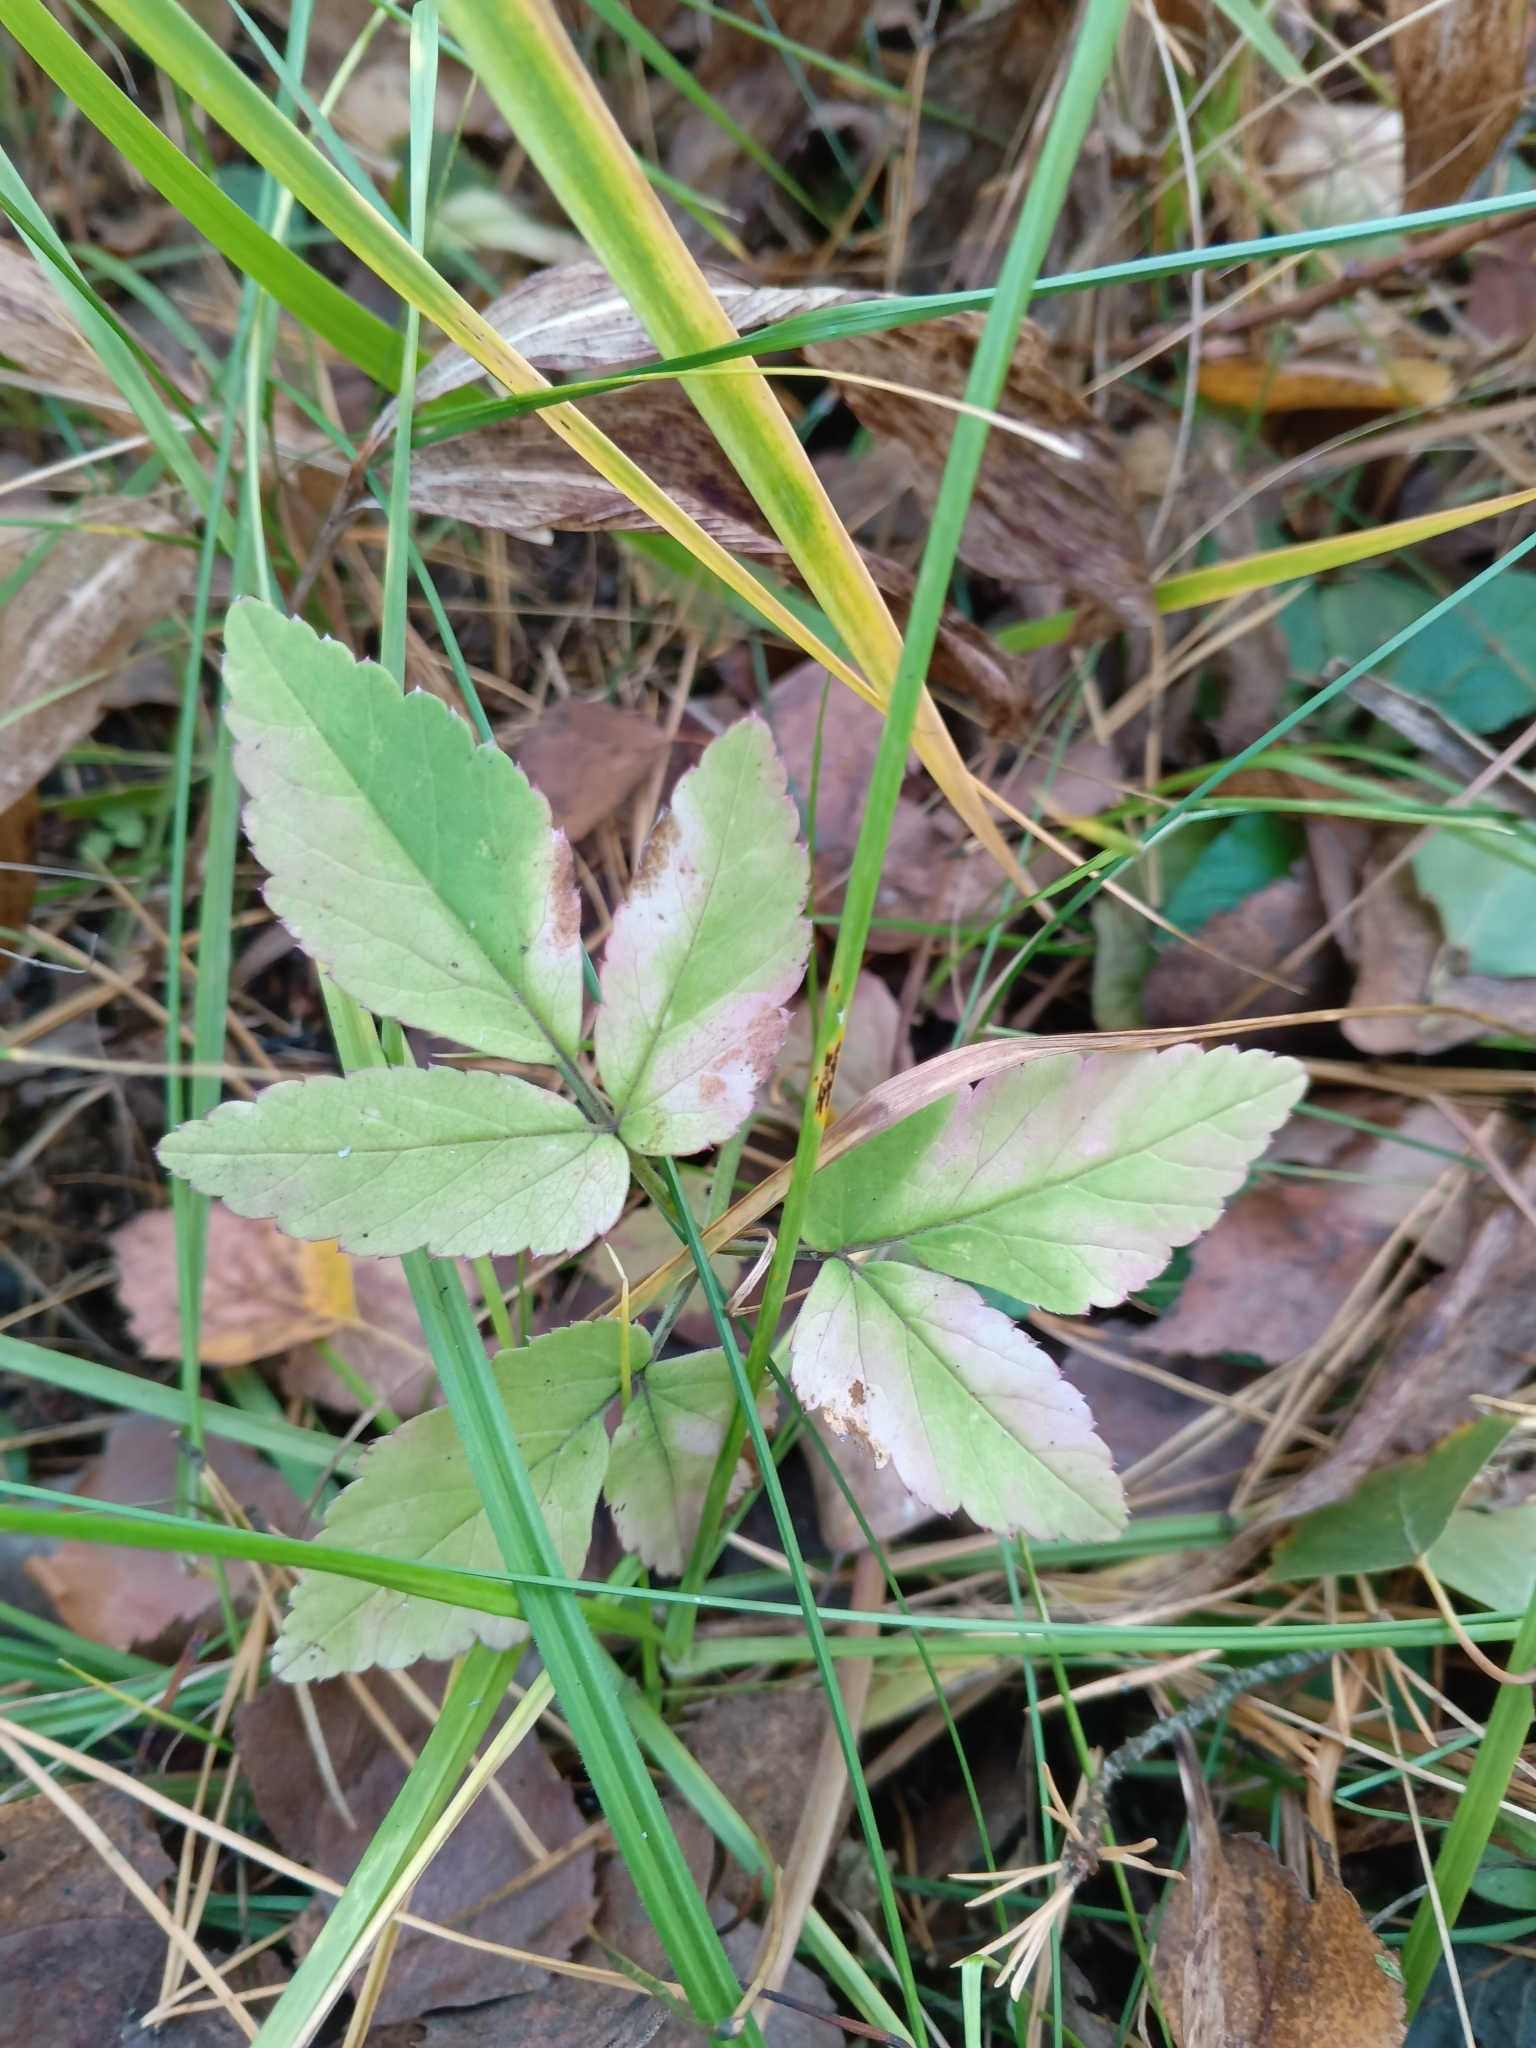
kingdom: Plantae
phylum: Tracheophyta
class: Magnoliopsida
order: Apiales
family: Apiaceae
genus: Aegopodium
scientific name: Aegopodium podagraria
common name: Ground-elder
